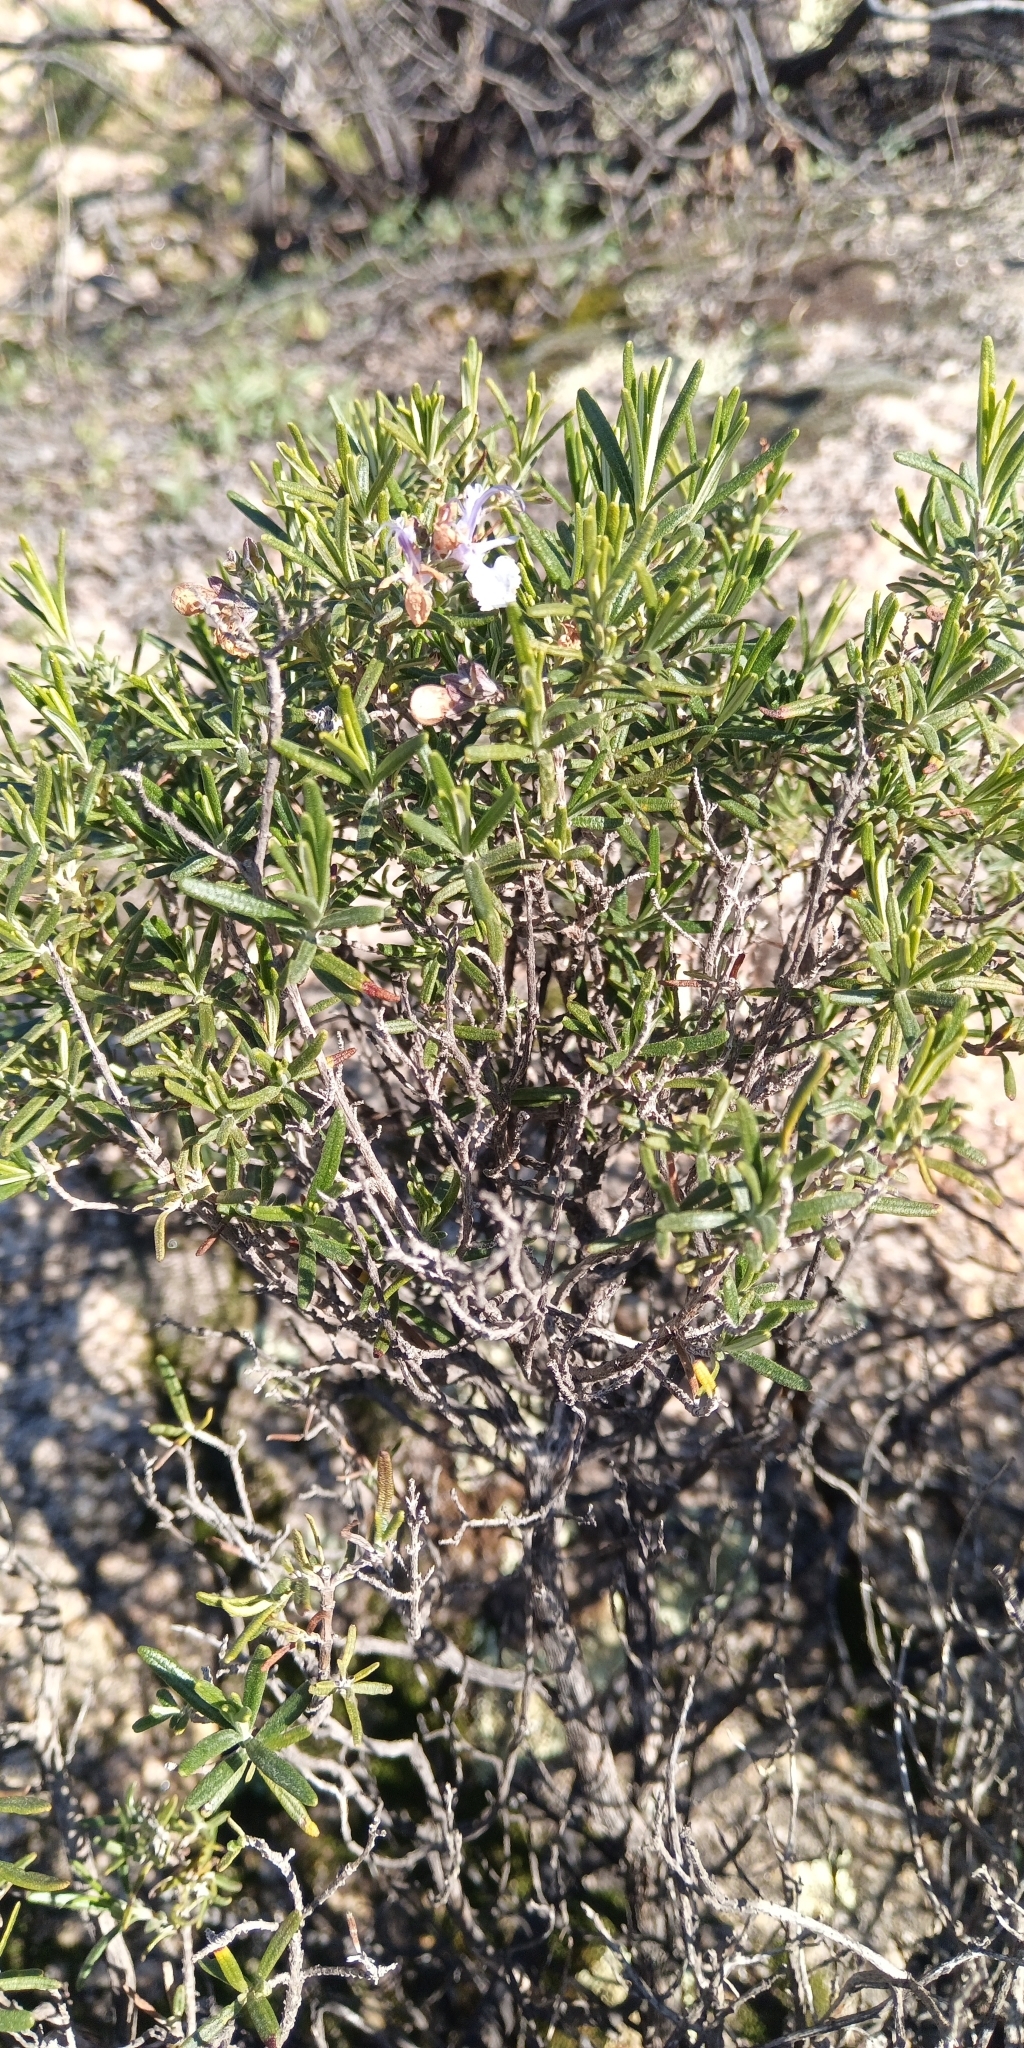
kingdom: Plantae
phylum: Tracheophyta
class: Magnoliopsida
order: Lamiales
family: Lamiaceae
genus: Salvia
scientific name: Salvia rosmarinus
